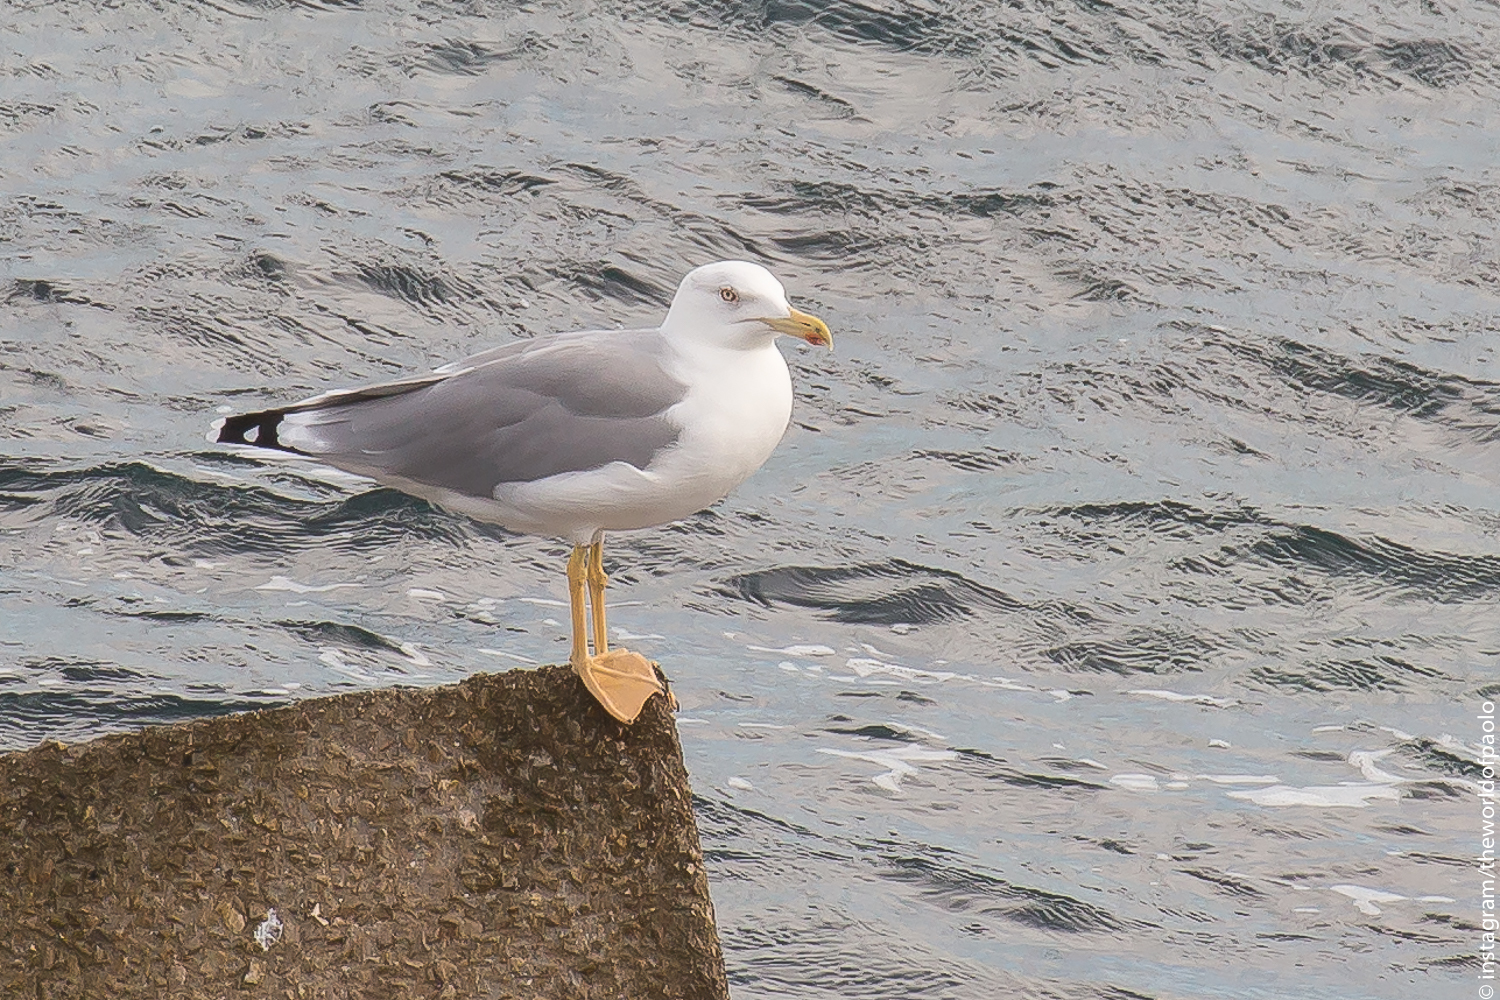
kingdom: Animalia
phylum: Chordata
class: Aves
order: Charadriiformes
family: Laridae
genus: Larus
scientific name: Larus michahellis
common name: Yellow-legged gull
